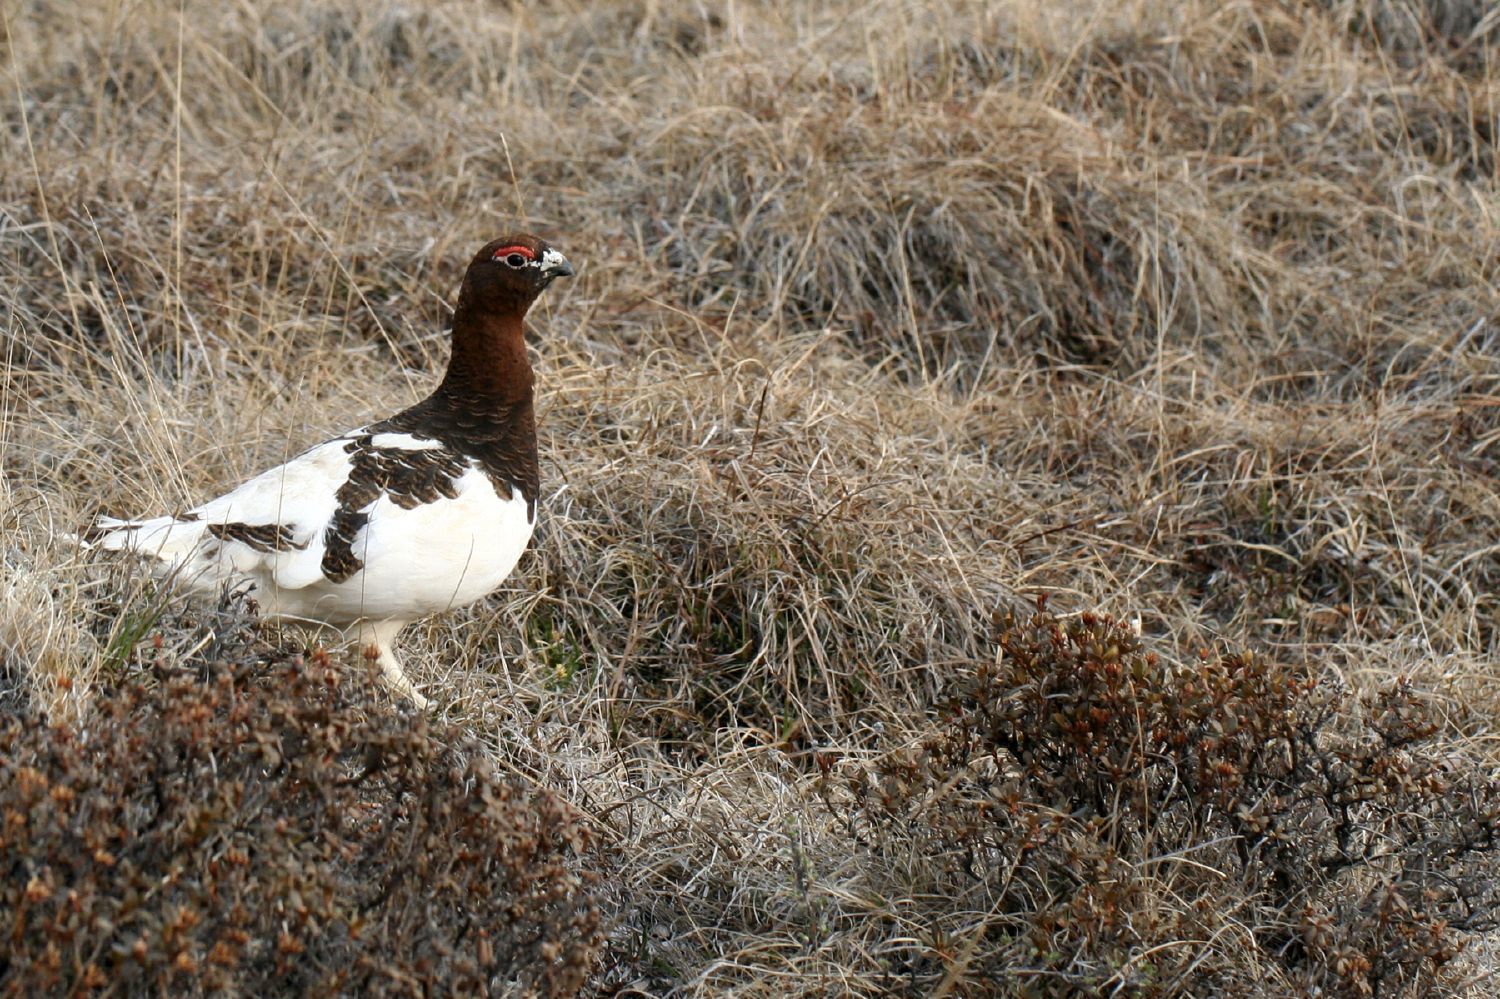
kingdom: Animalia
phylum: Chordata
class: Aves
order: Galliformes
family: Phasianidae
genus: Lagopus
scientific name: Lagopus lagopus
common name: Willow ptarmigan
